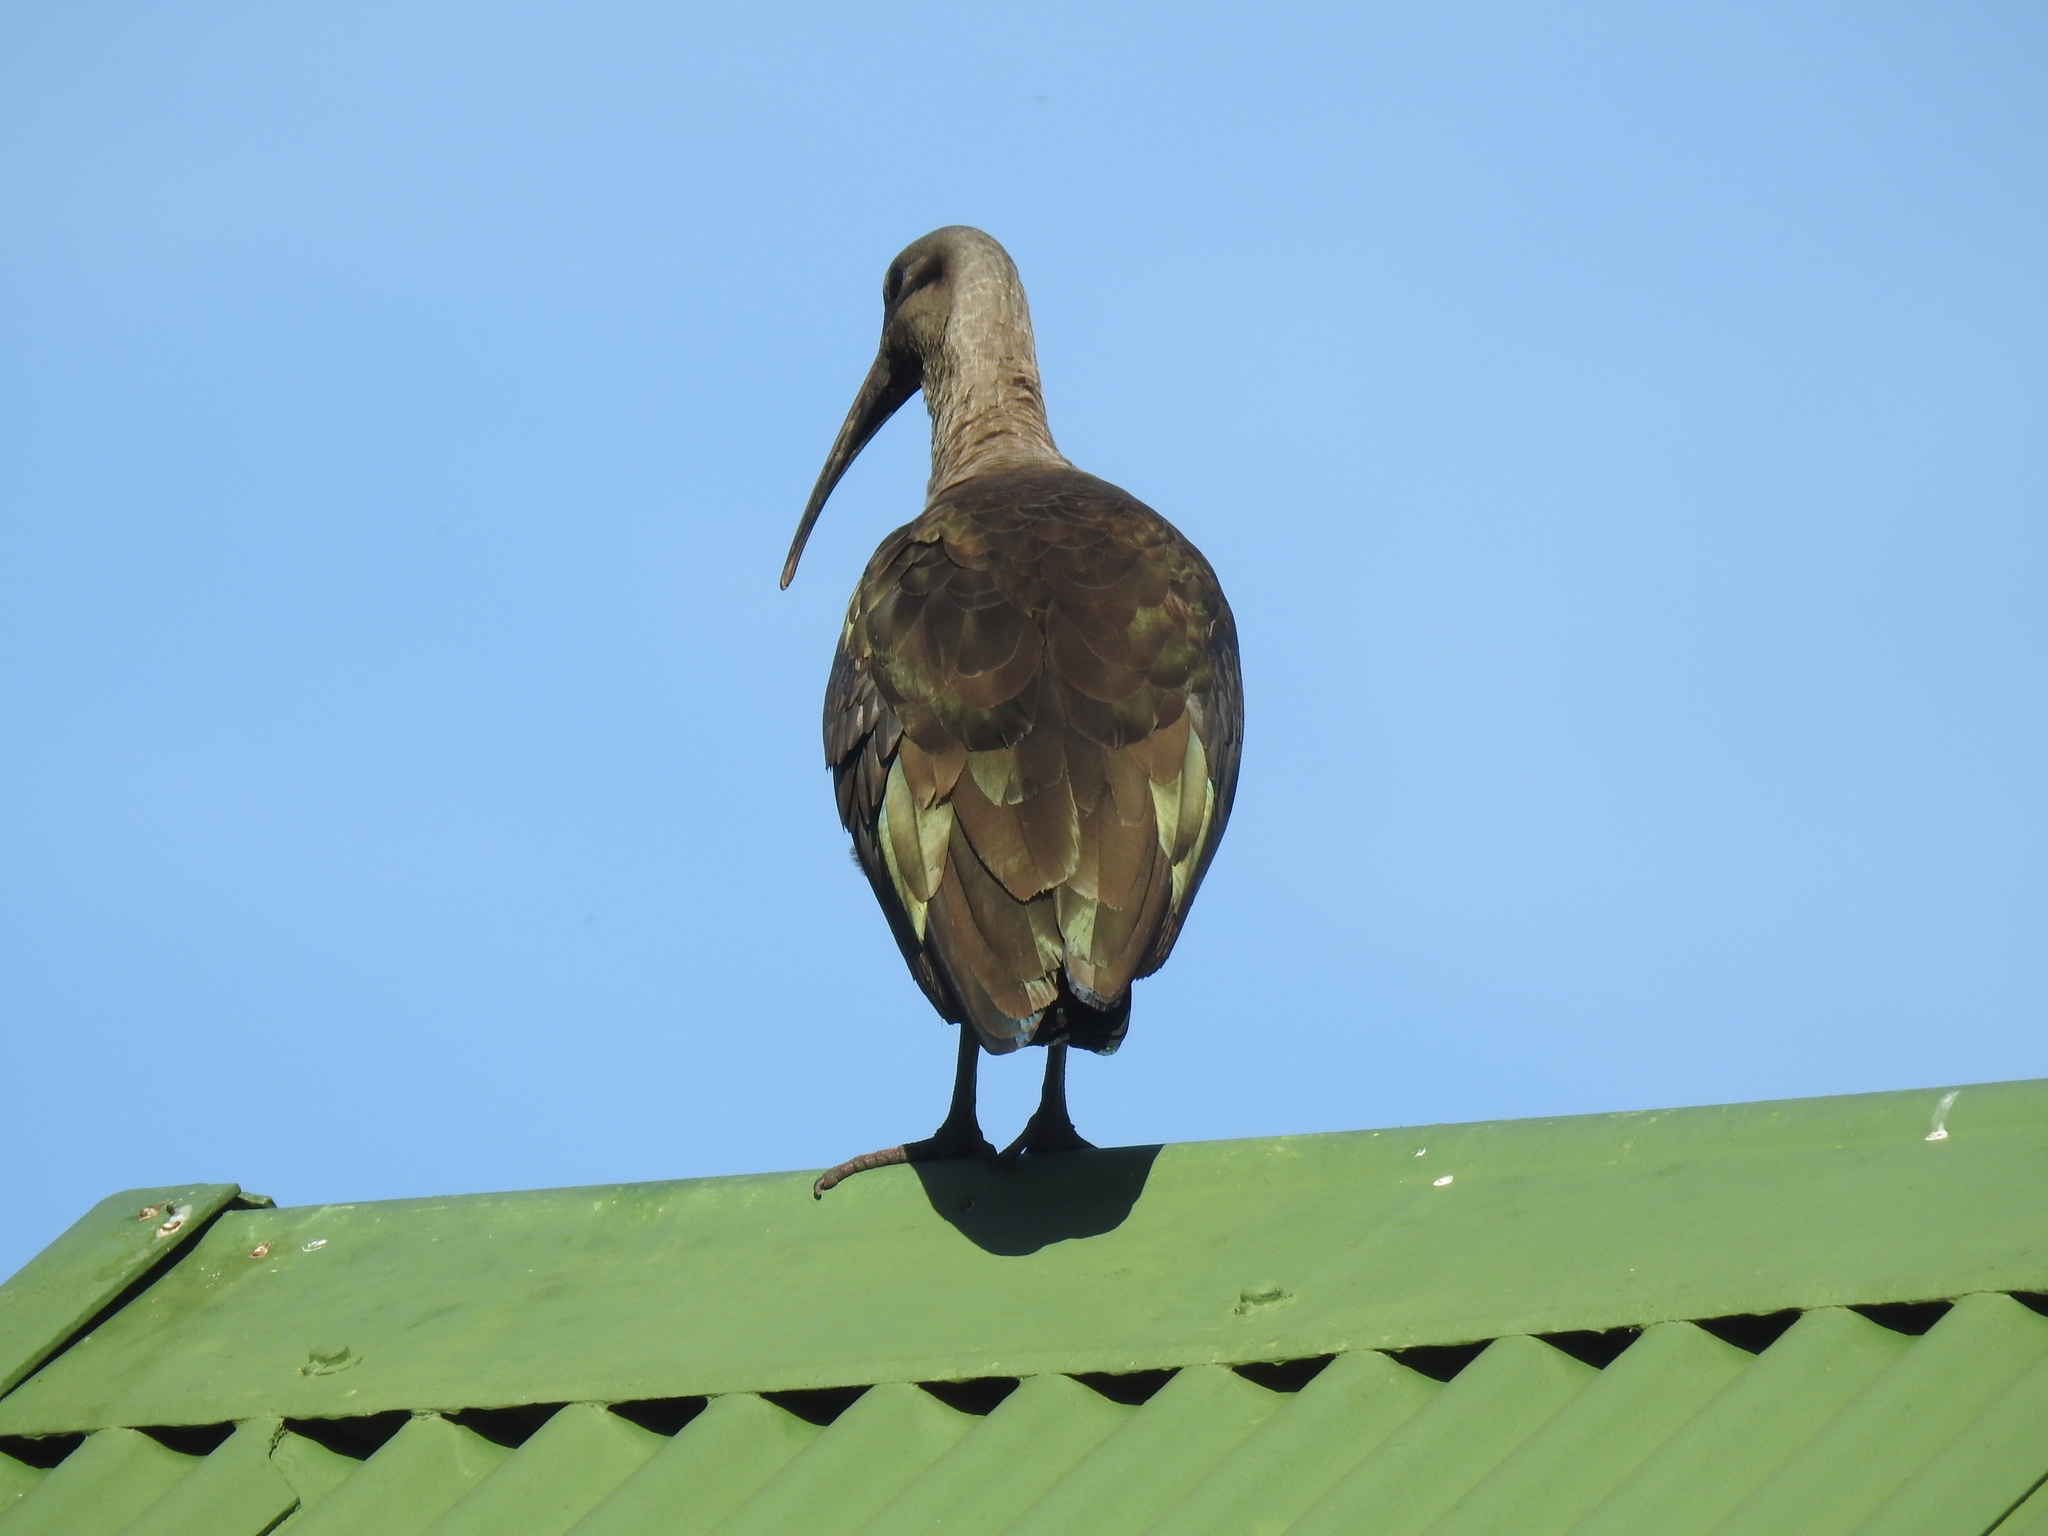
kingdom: Animalia
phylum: Chordata
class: Aves
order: Pelecaniformes
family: Threskiornithidae
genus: Bostrychia
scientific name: Bostrychia hagedash
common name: Hadada ibis
